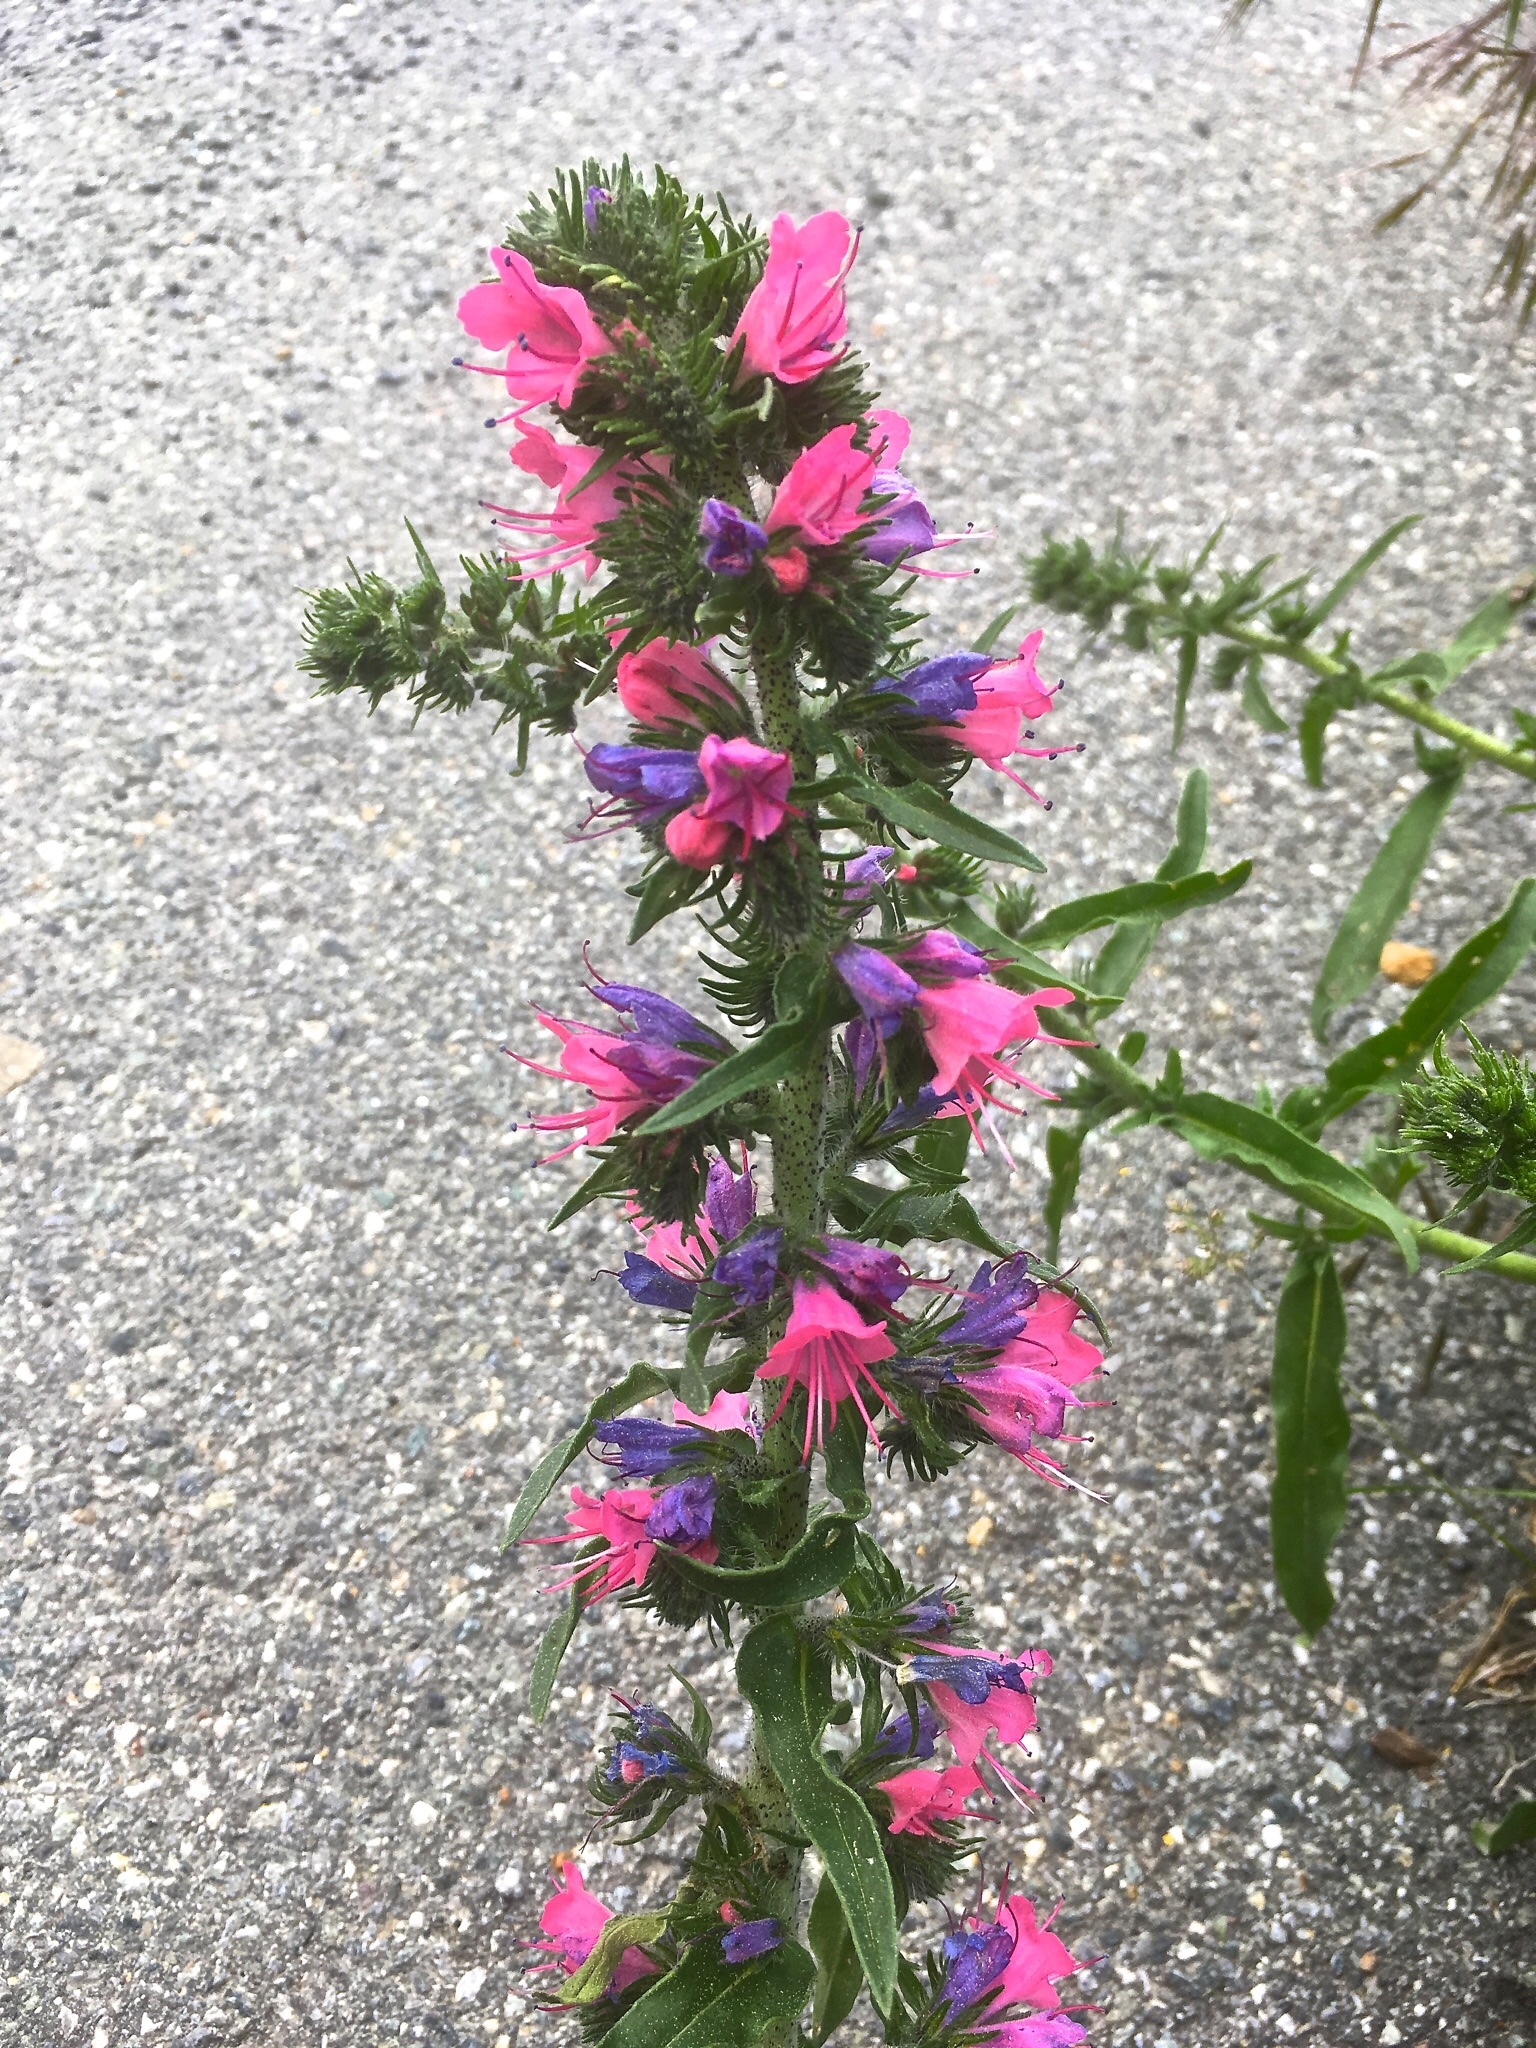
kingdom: Plantae
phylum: Tracheophyta
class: Magnoliopsida
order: Boraginales
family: Boraginaceae
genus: Echium
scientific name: Echium vulgare
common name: Common viper's bugloss
